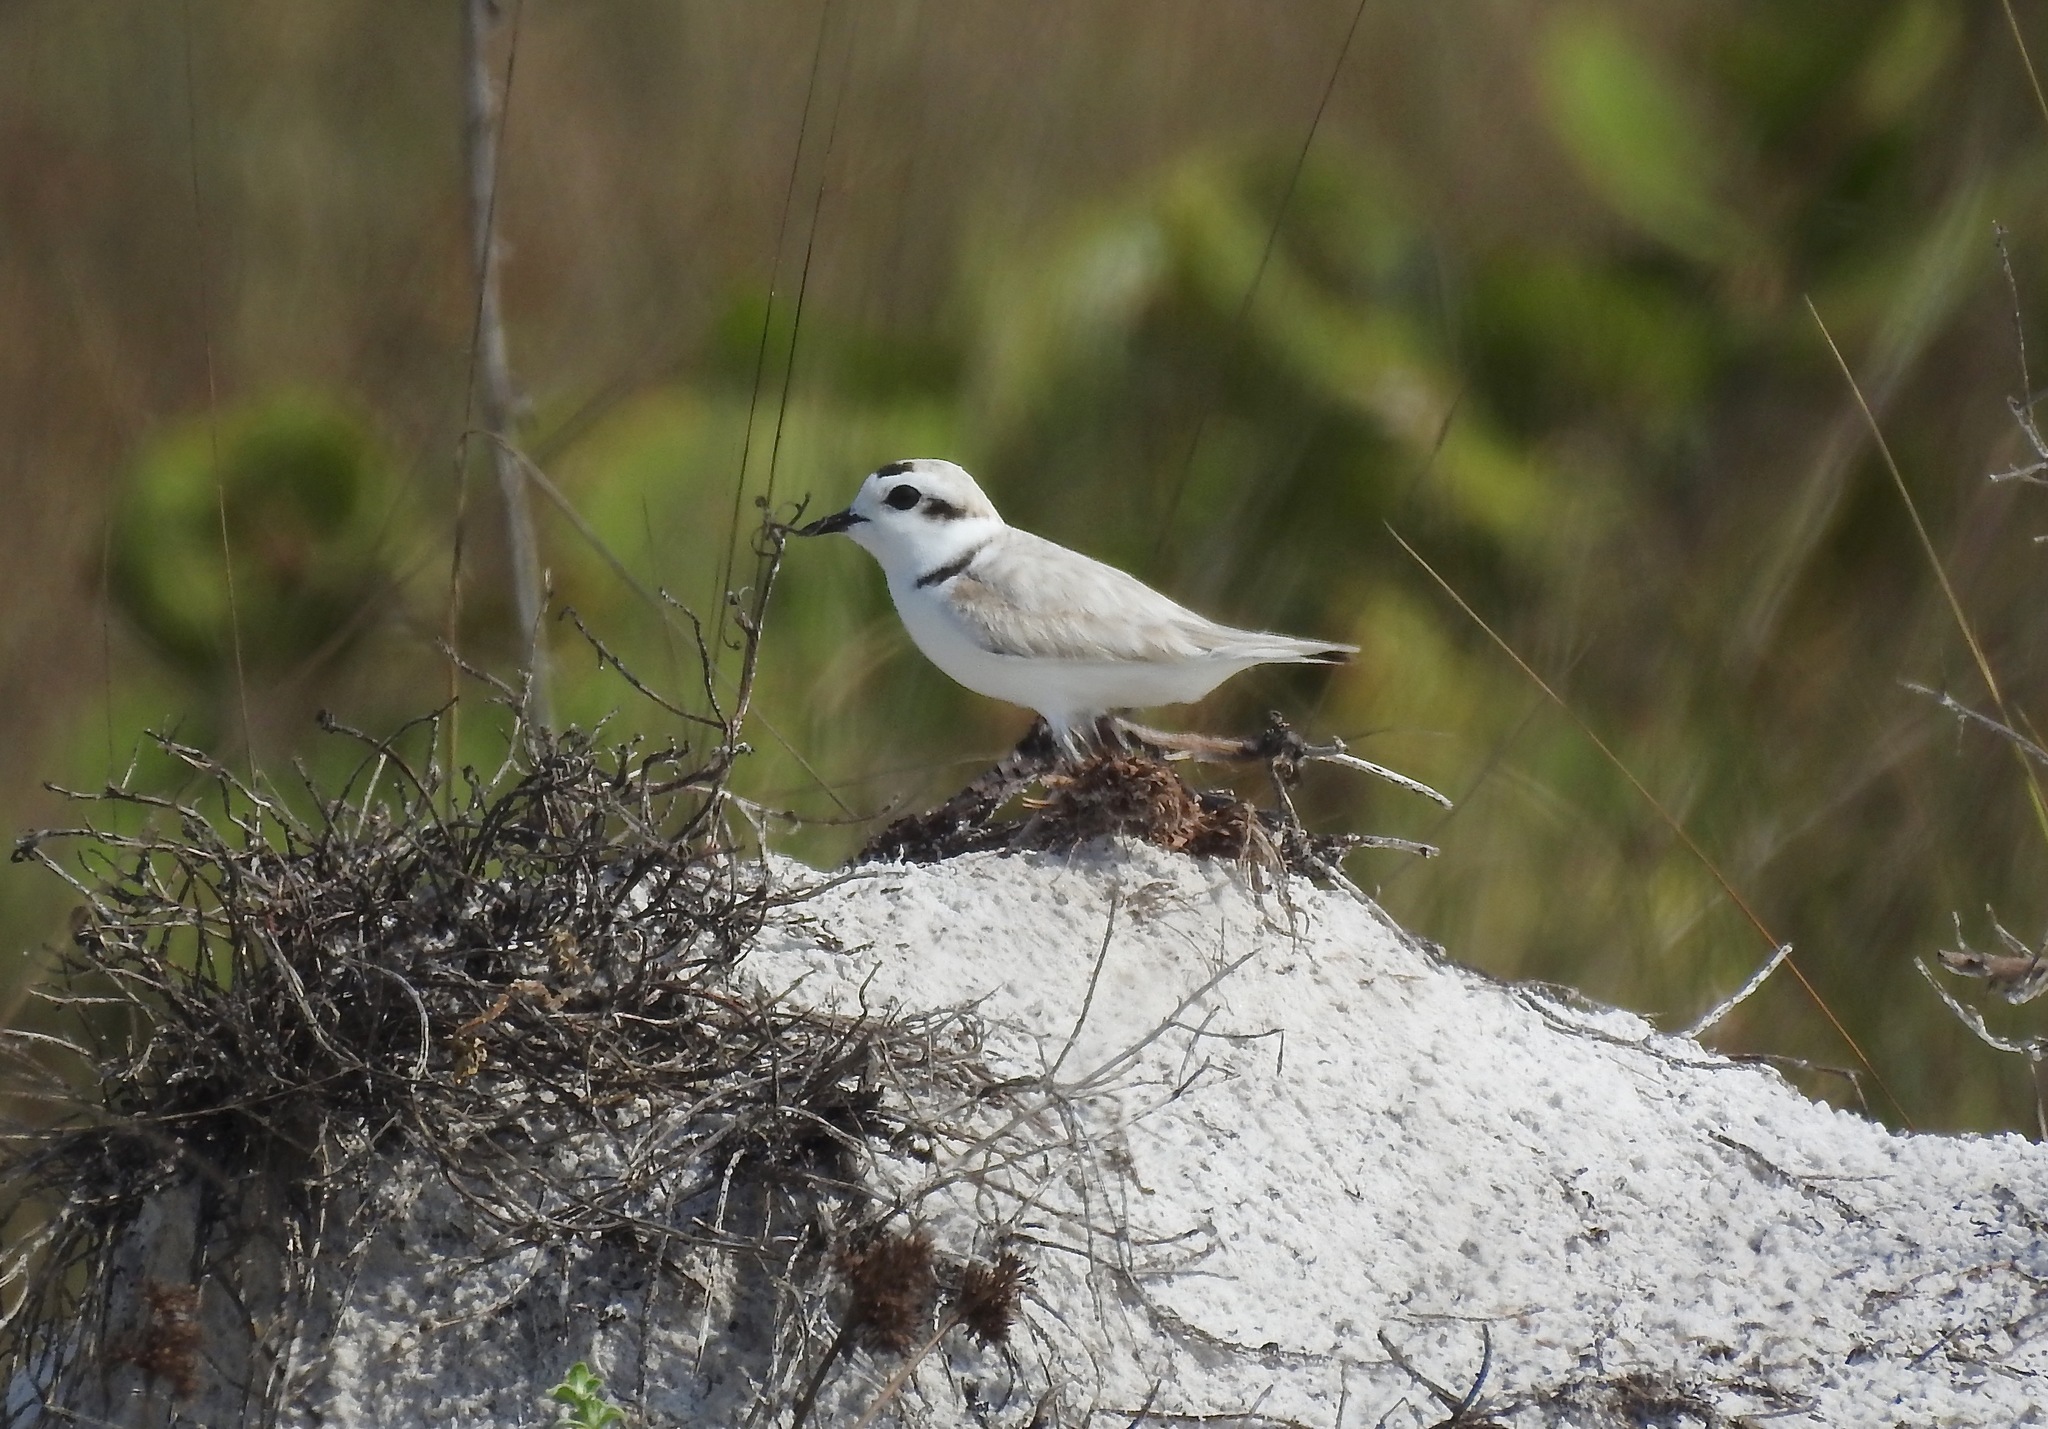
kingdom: Animalia
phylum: Chordata
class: Aves
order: Charadriiformes
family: Charadriidae
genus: Anarhynchus
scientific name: Anarhynchus
